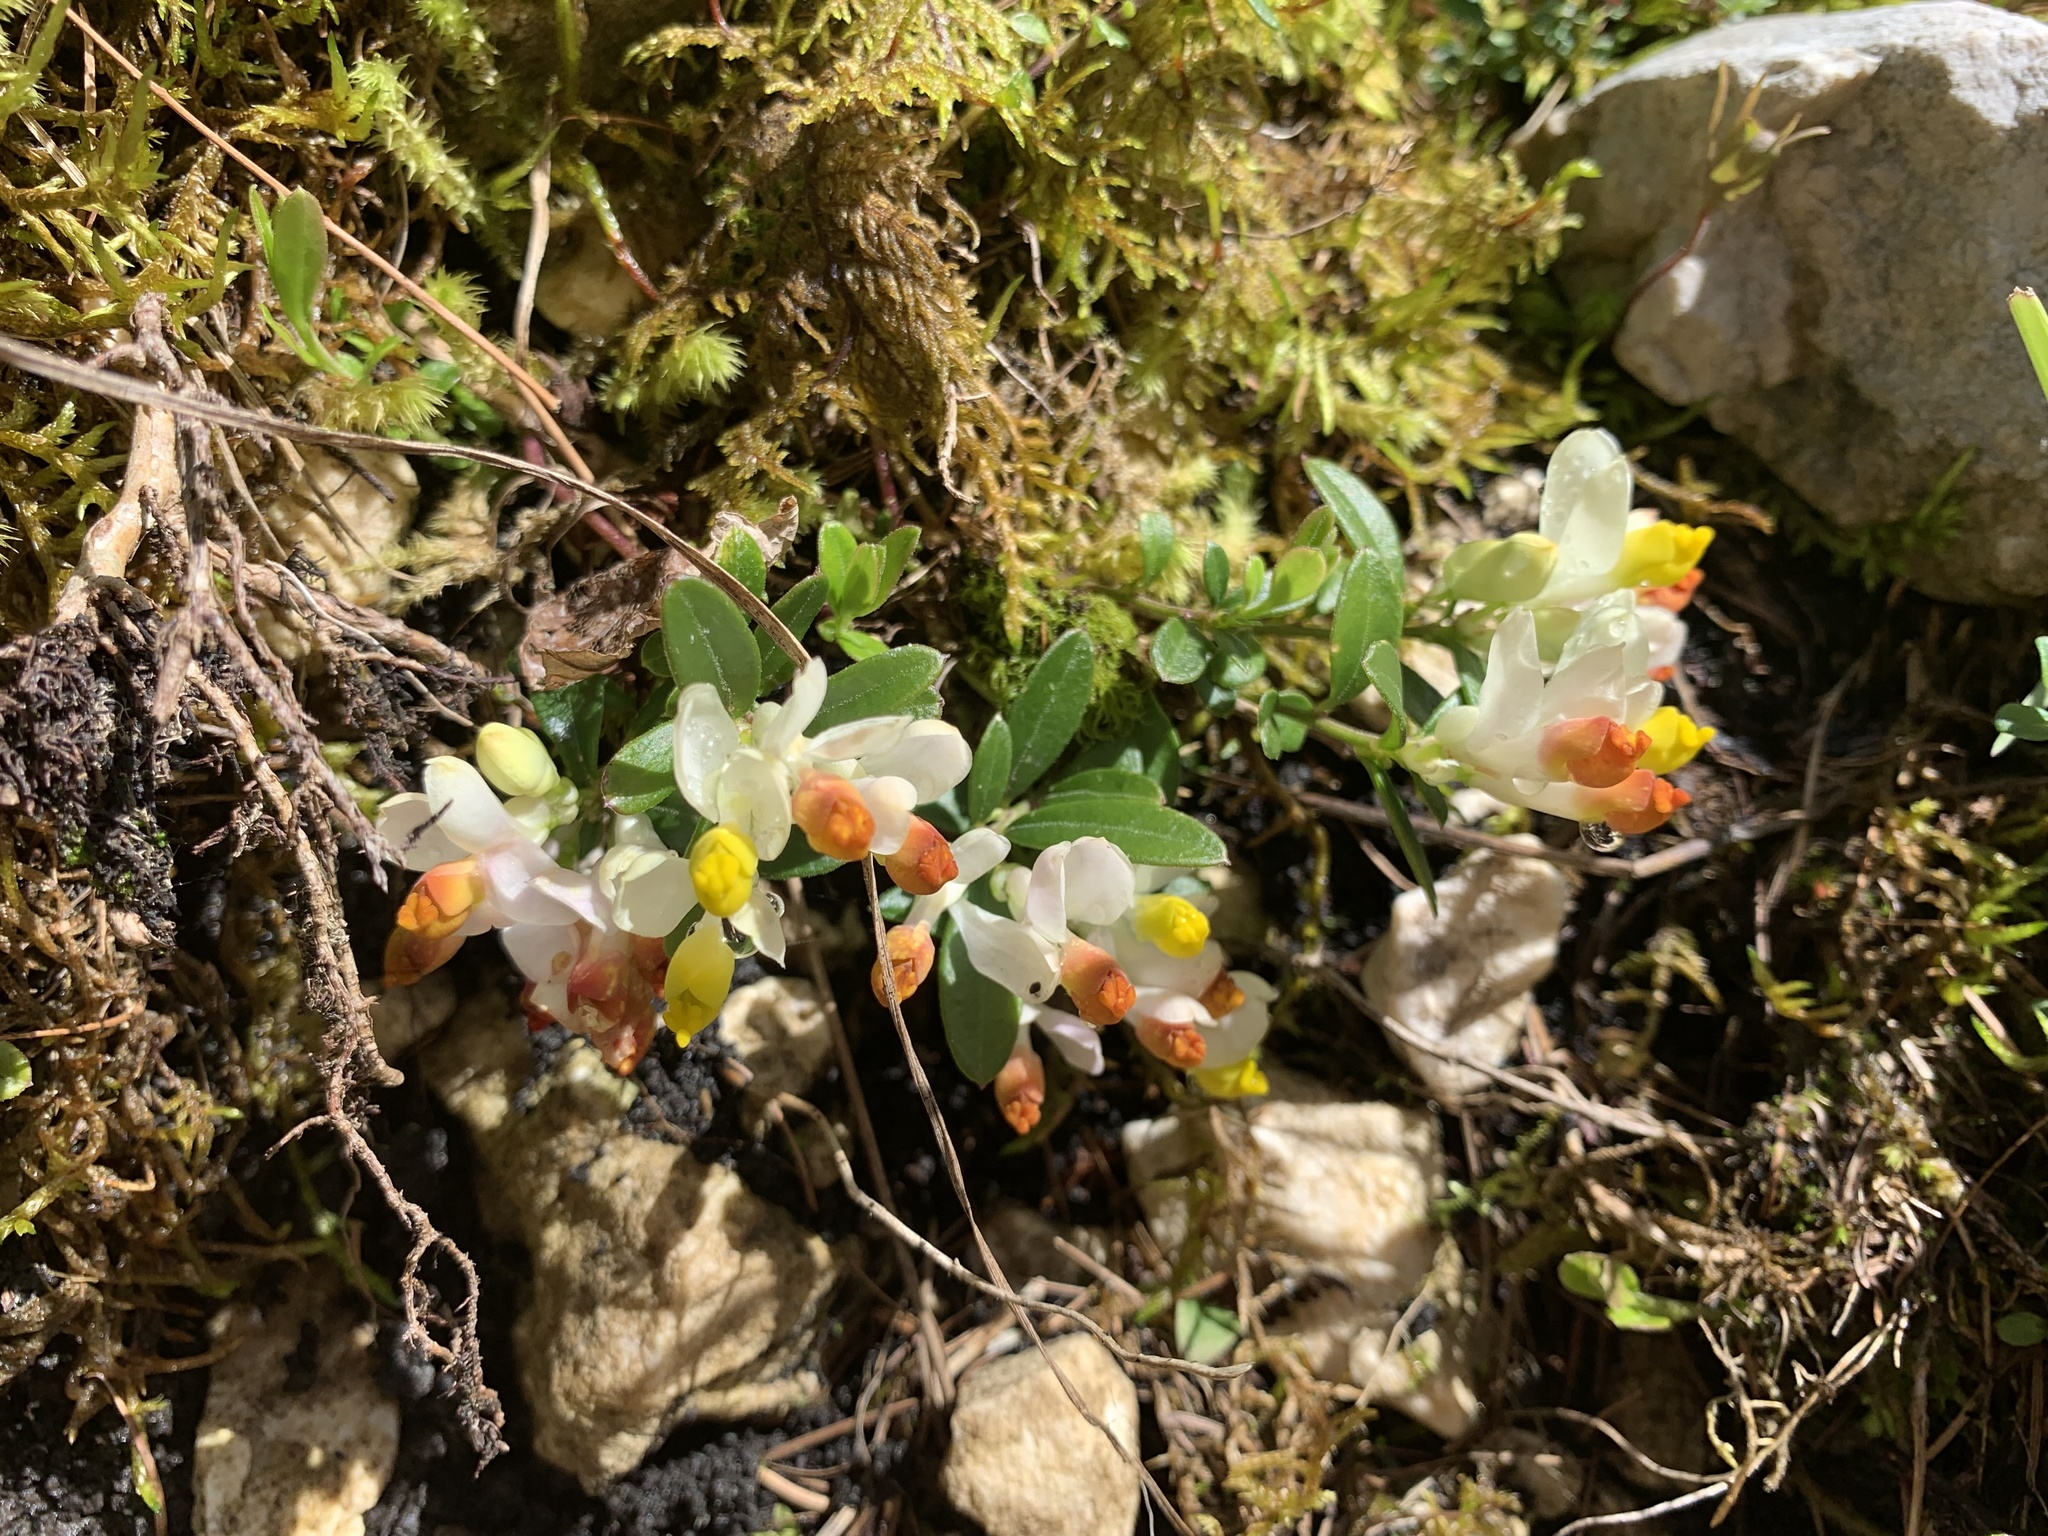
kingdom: Plantae
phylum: Tracheophyta
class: Magnoliopsida
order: Fabales
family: Polygalaceae
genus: Polygaloides
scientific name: Polygaloides chamaebuxus
